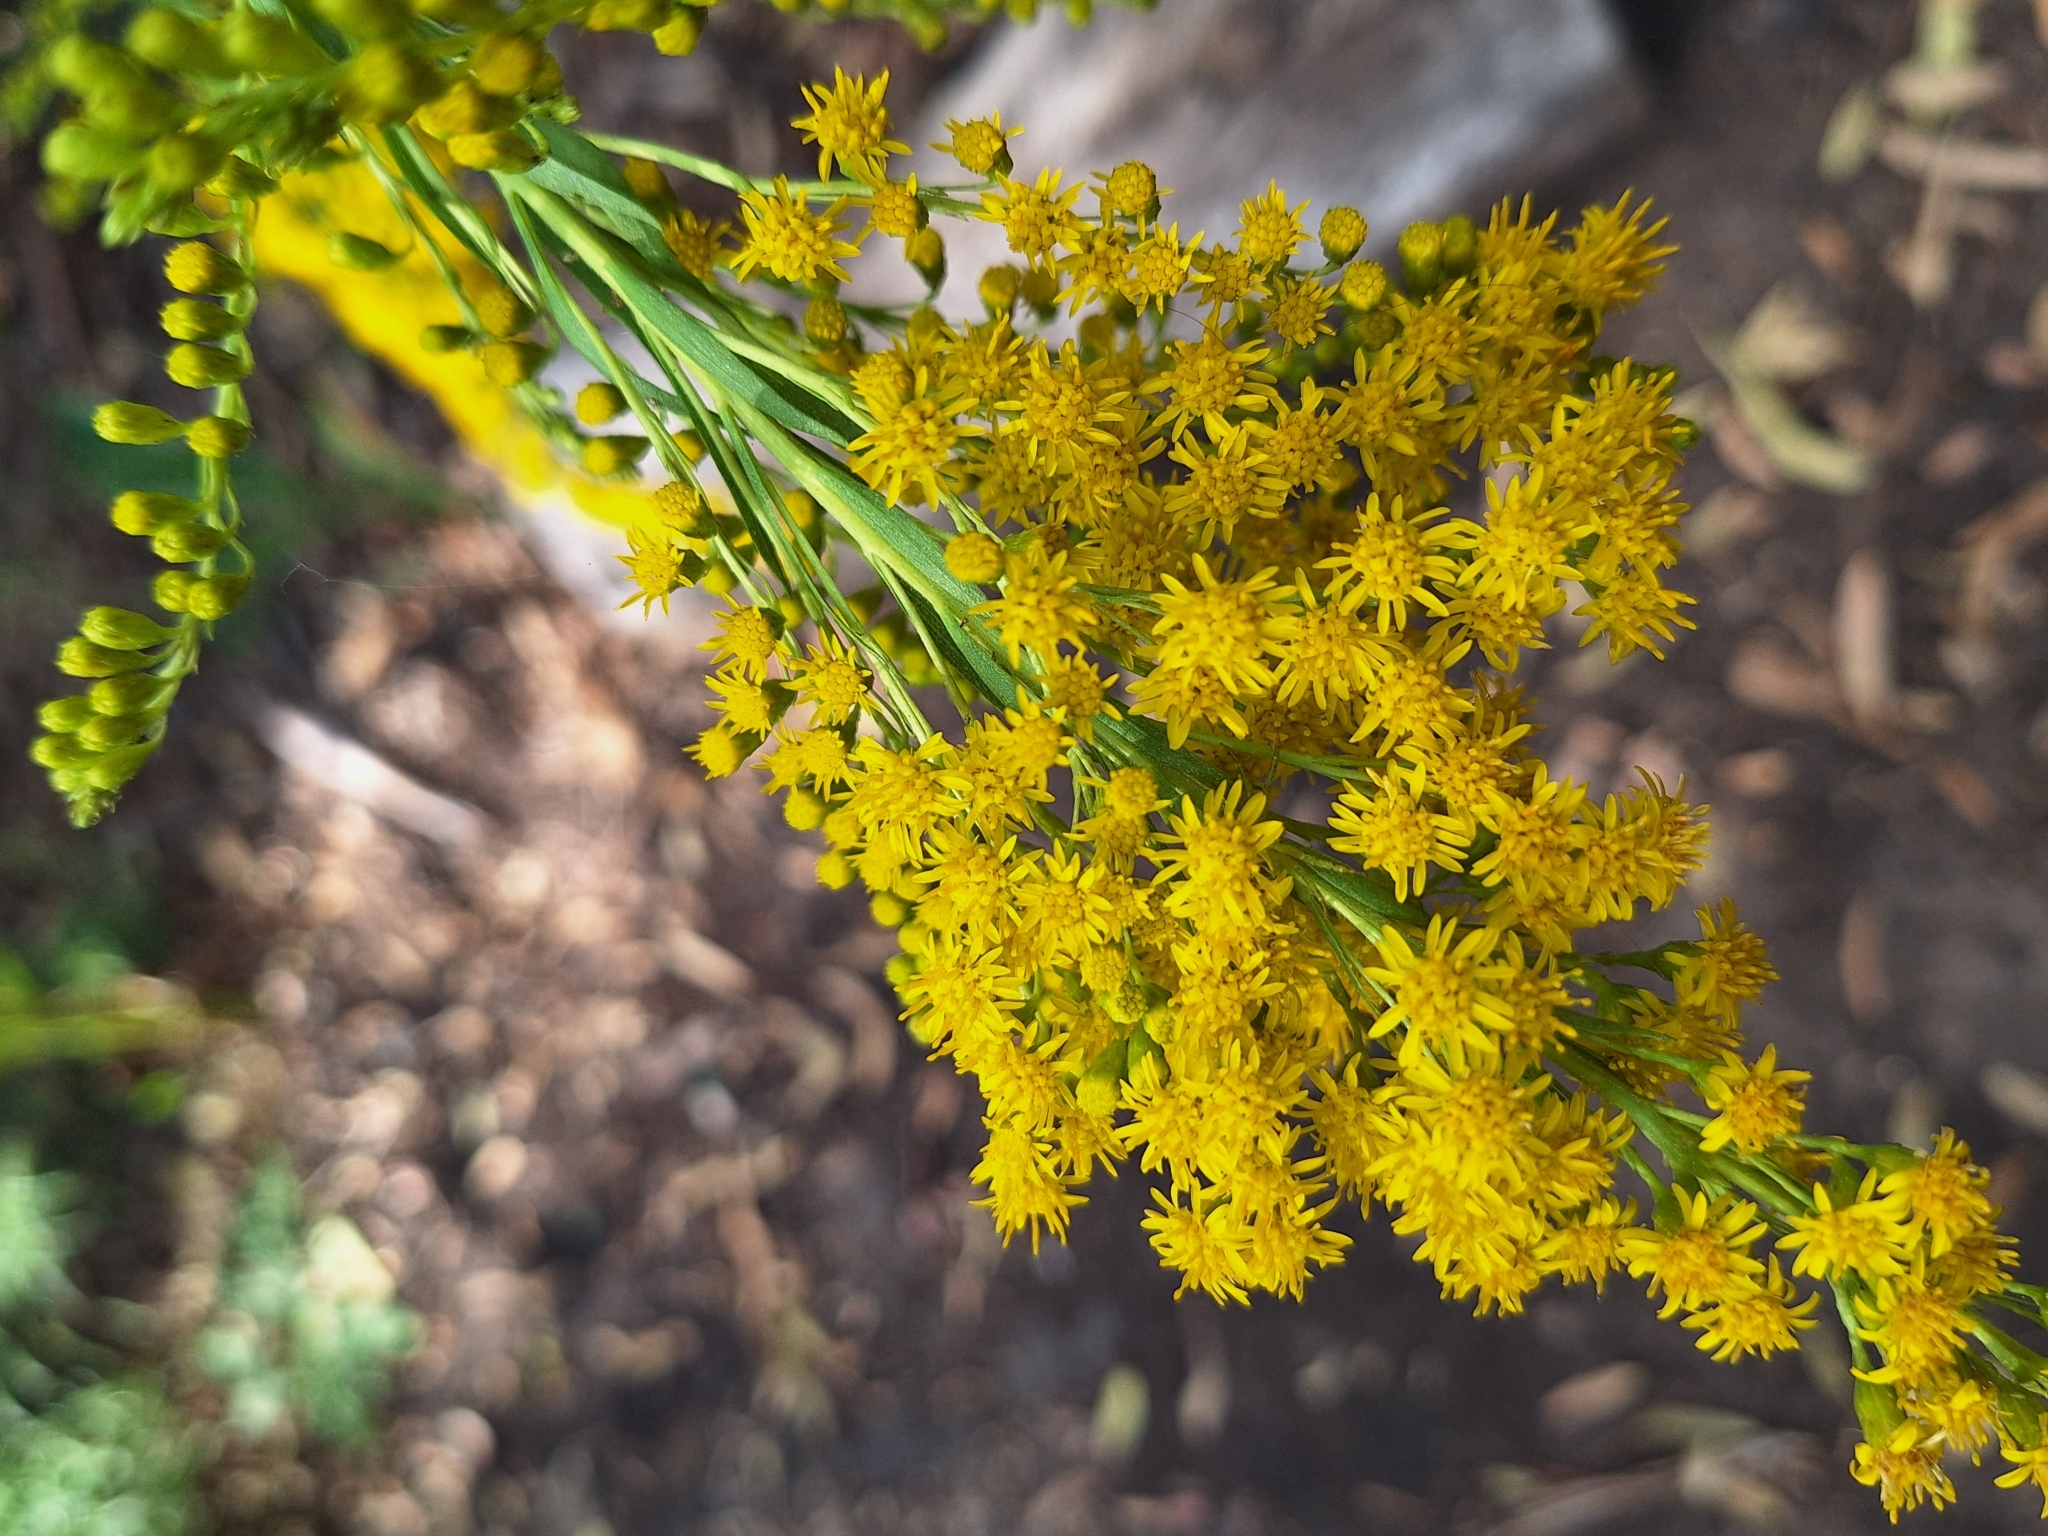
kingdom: Plantae
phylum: Tracheophyta
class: Magnoliopsida
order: Asterales
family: Asteraceae
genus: Solidago
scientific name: Solidago chilensis
